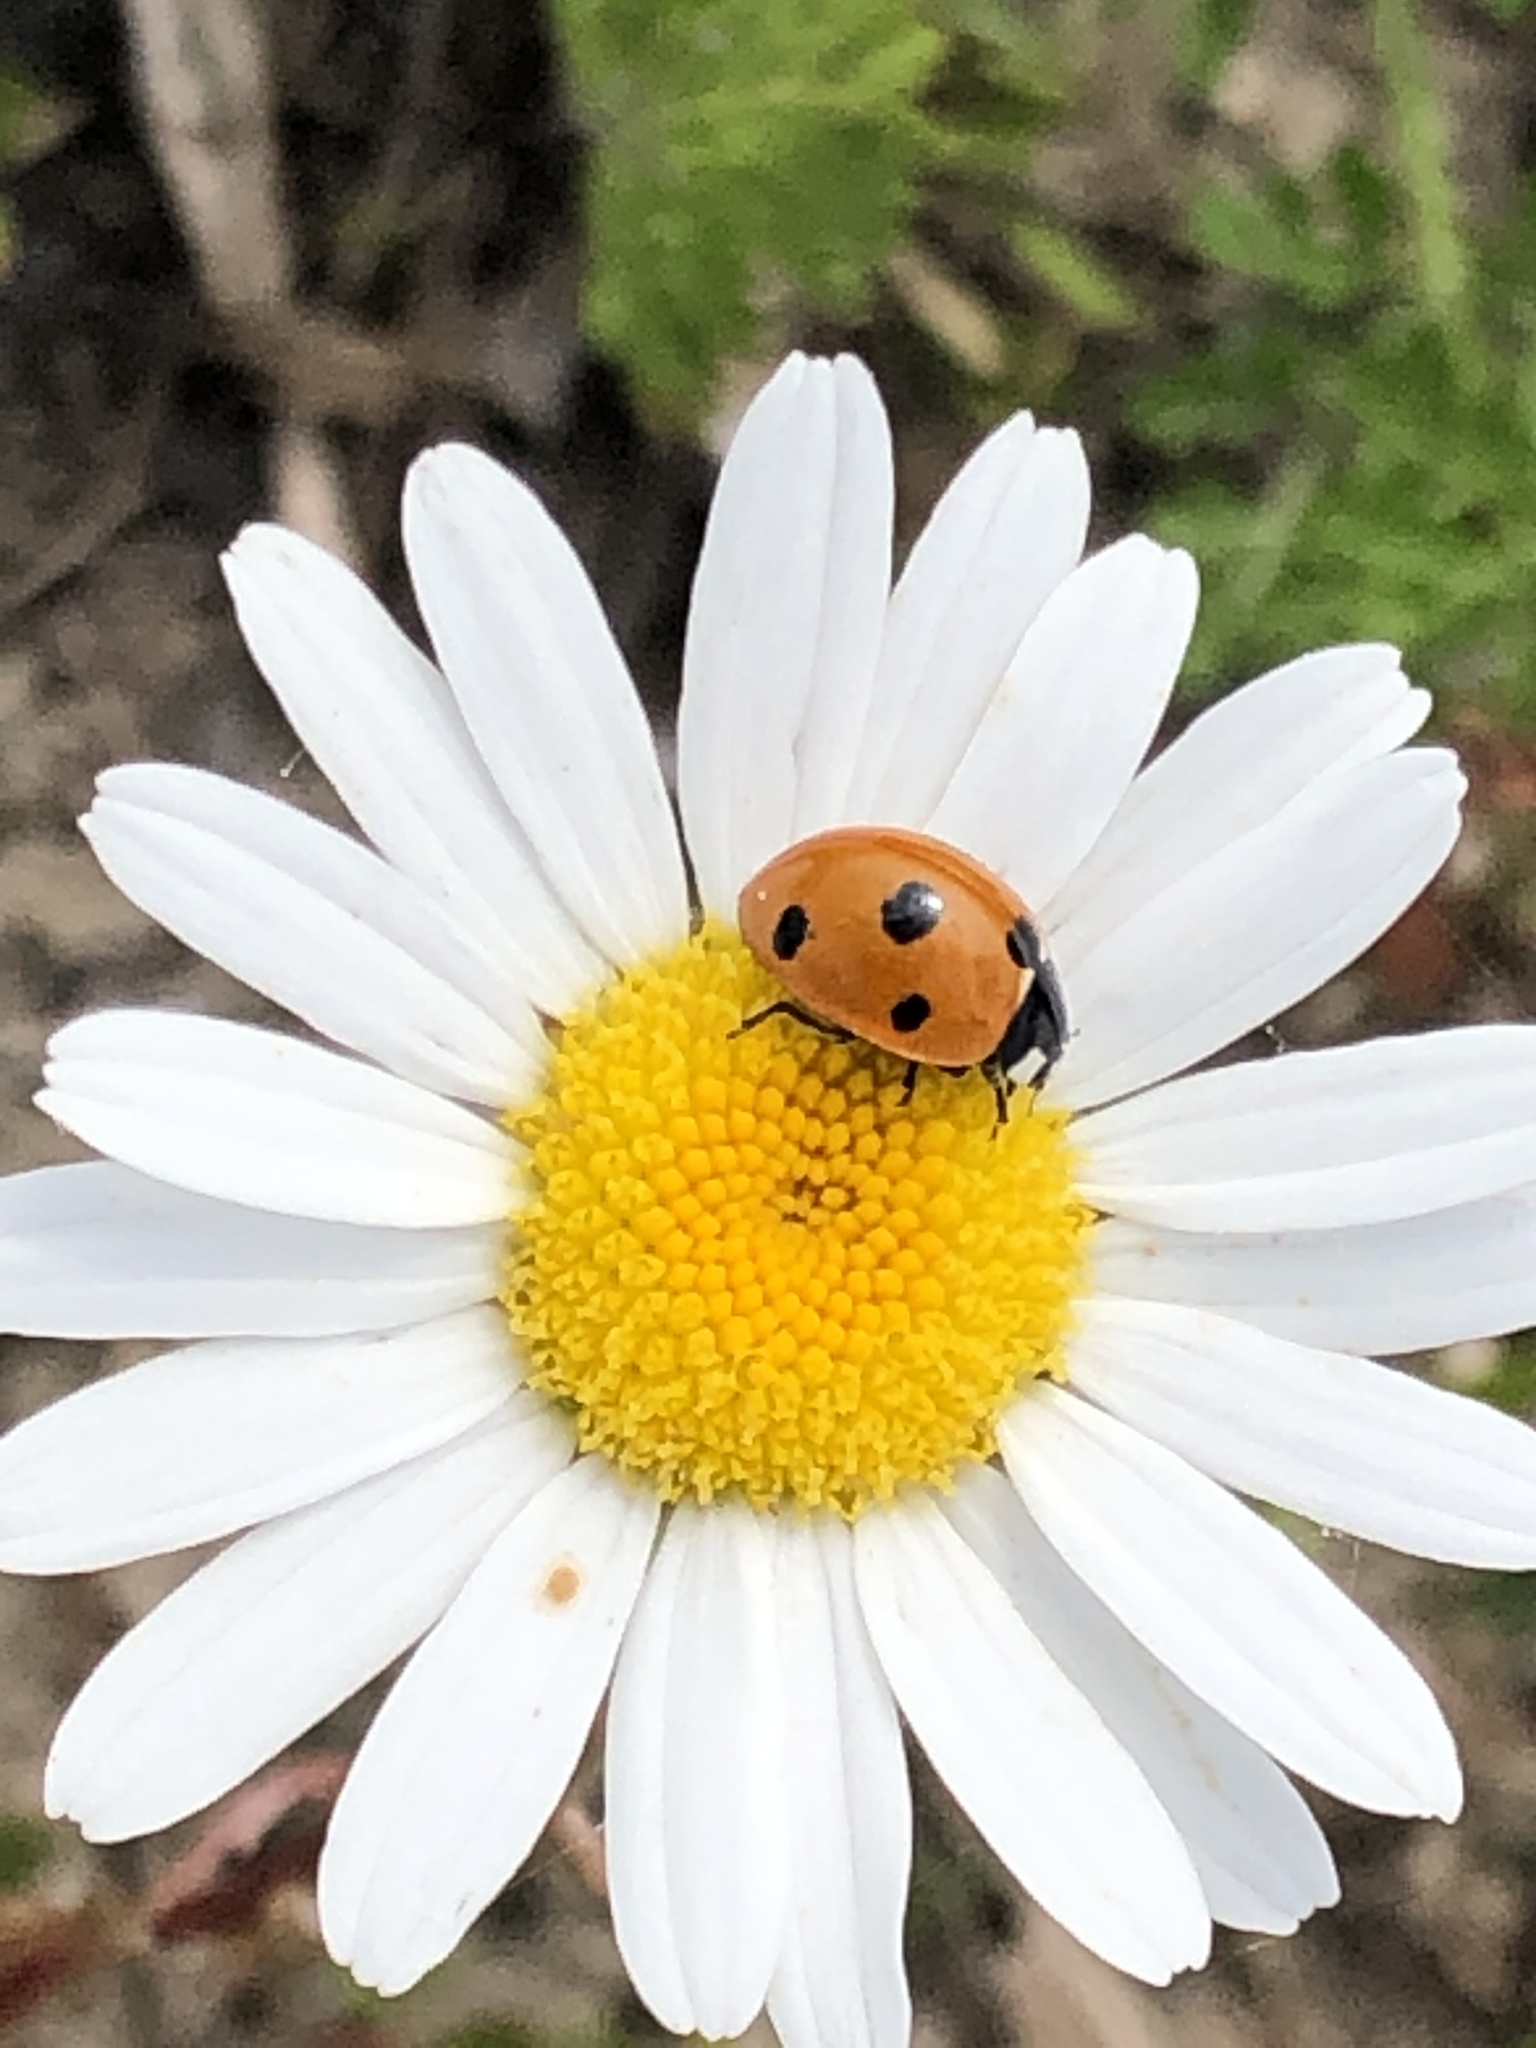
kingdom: Animalia
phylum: Arthropoda
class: Insecta
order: Coleoptera
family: Coccinellidae
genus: Coccinella
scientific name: Coccinella septempunctata
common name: Sevenspotted lady beetle
